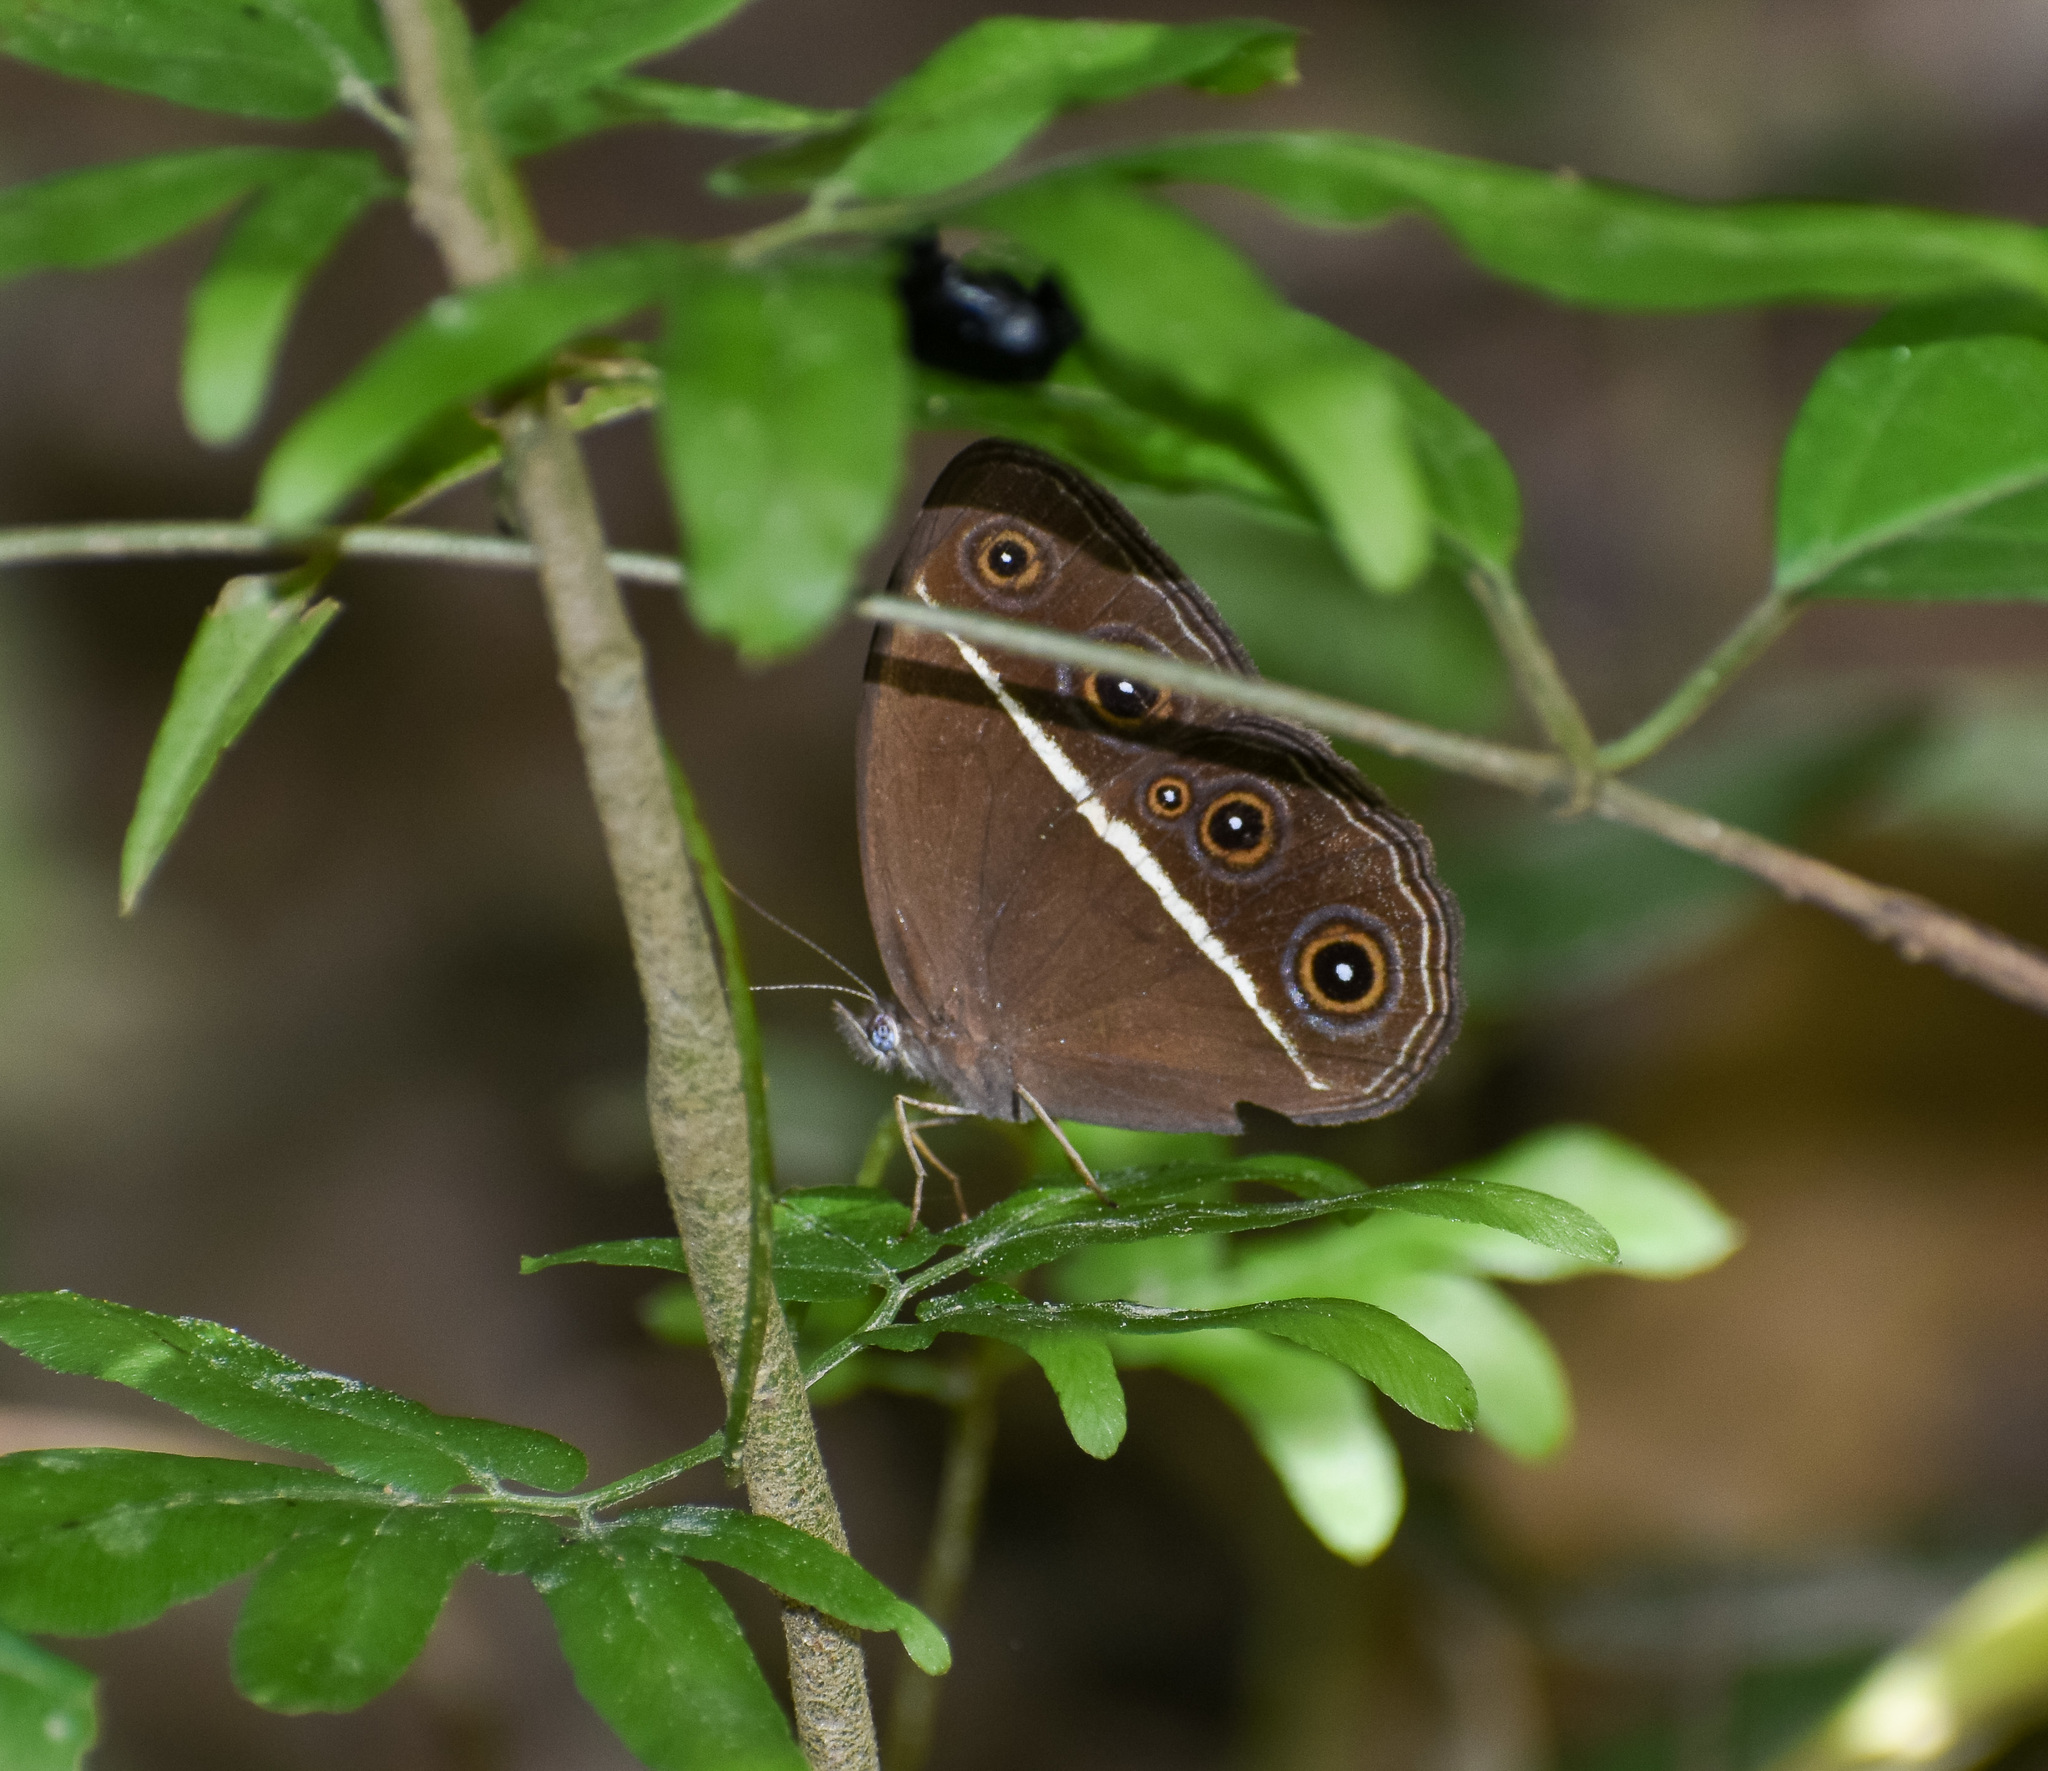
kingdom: Animalia
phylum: Arthropoda
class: Insecta
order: Lepidoptera
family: Nymphalidae
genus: Orsotriaena
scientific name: Orsotriaena medus
